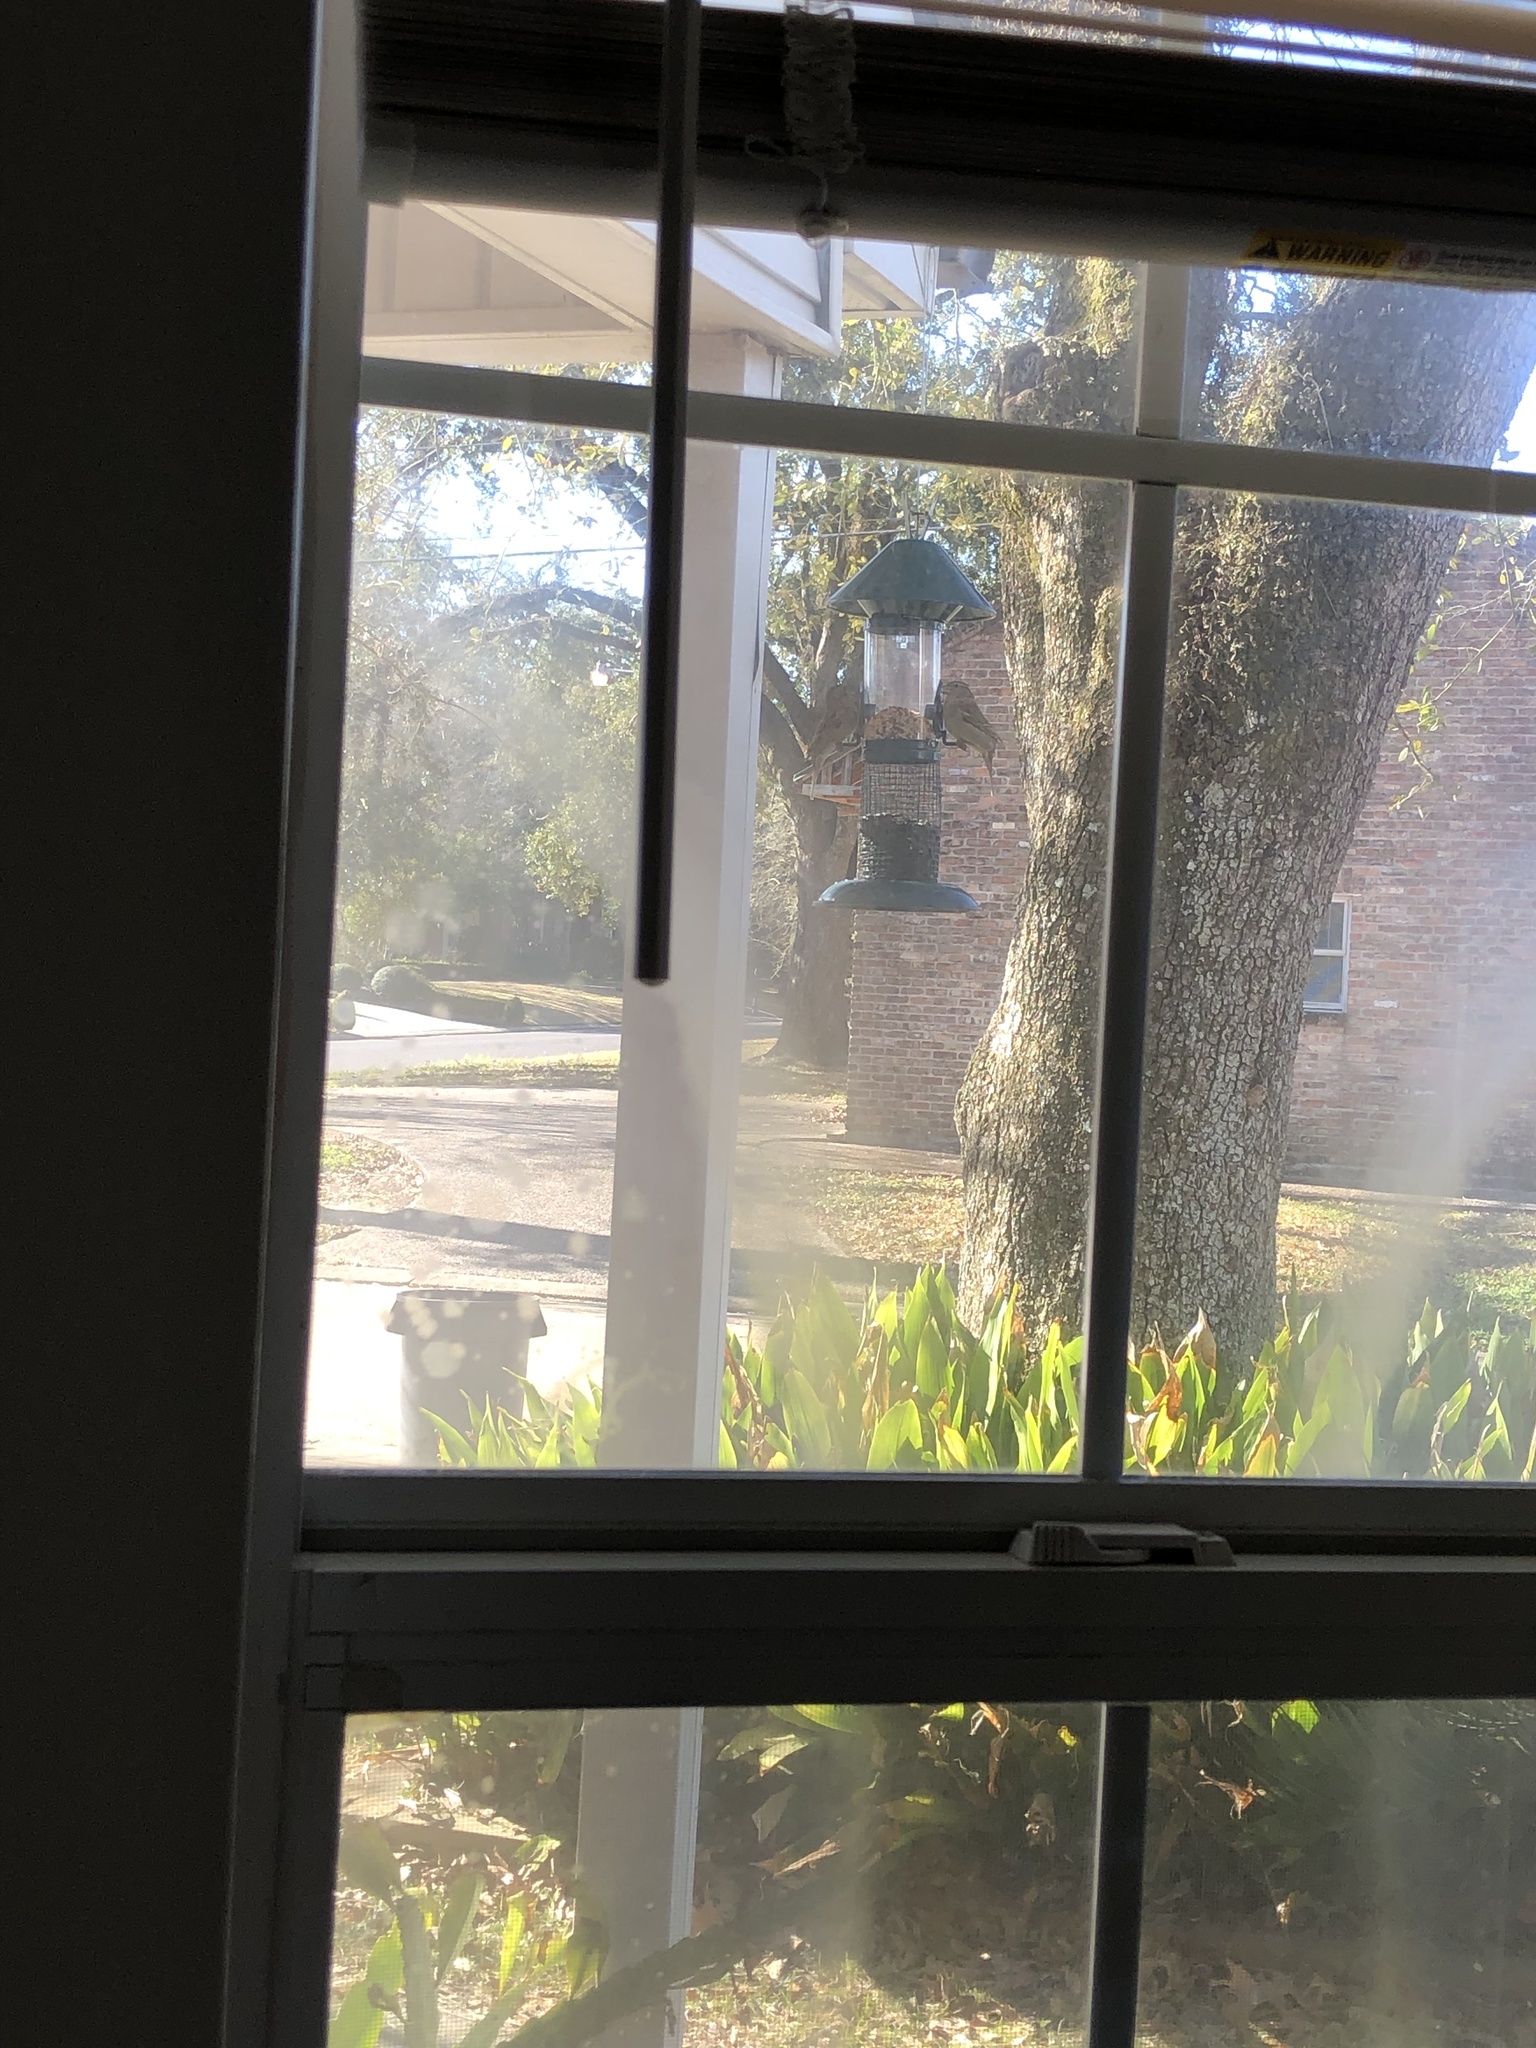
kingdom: Animalia
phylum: Chordata
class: Aves
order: Passeriformes
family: Passeridae
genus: Passer
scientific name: Passer domesticus
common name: House sparrow
